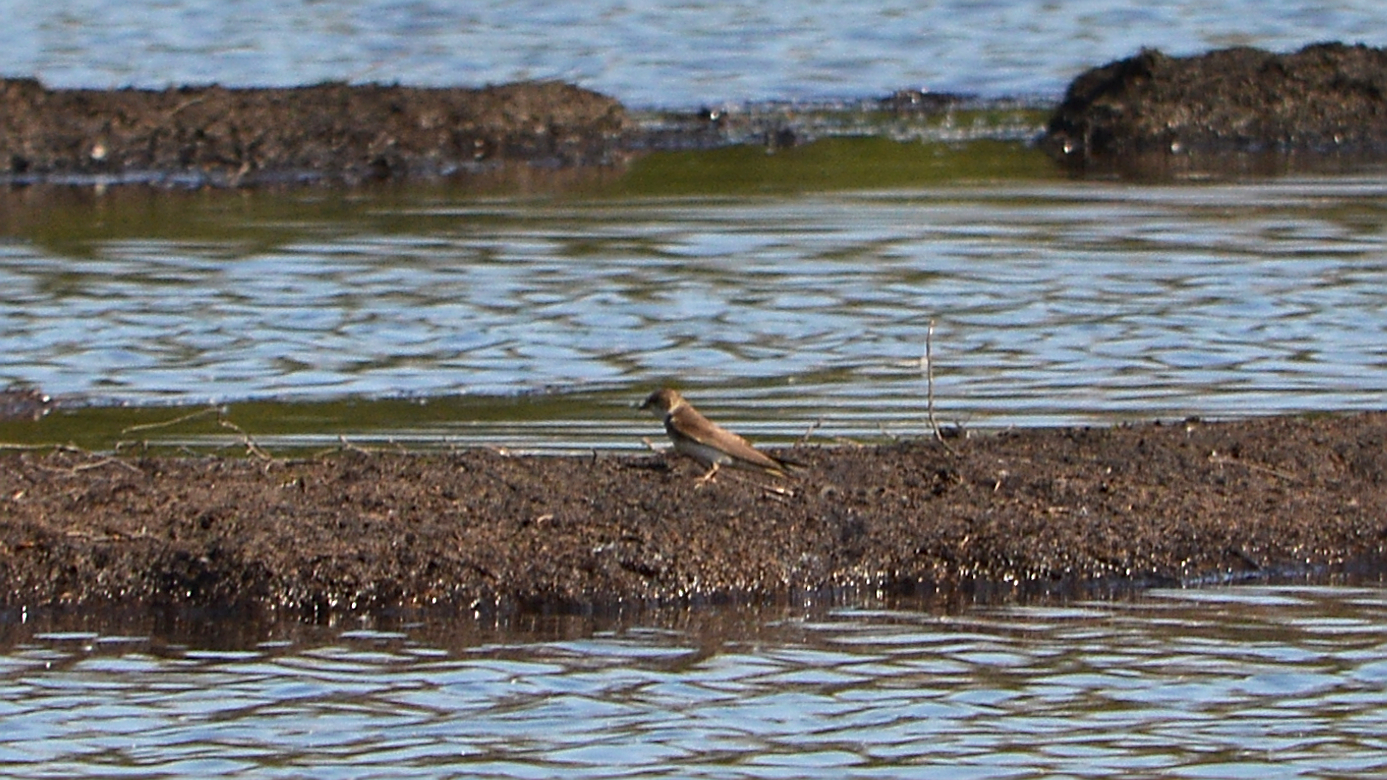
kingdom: Animalia
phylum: Chordata
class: Aves
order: Passeriformes
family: Hirundinidae
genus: Riparia
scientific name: Riparia riparia
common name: Sand martin
